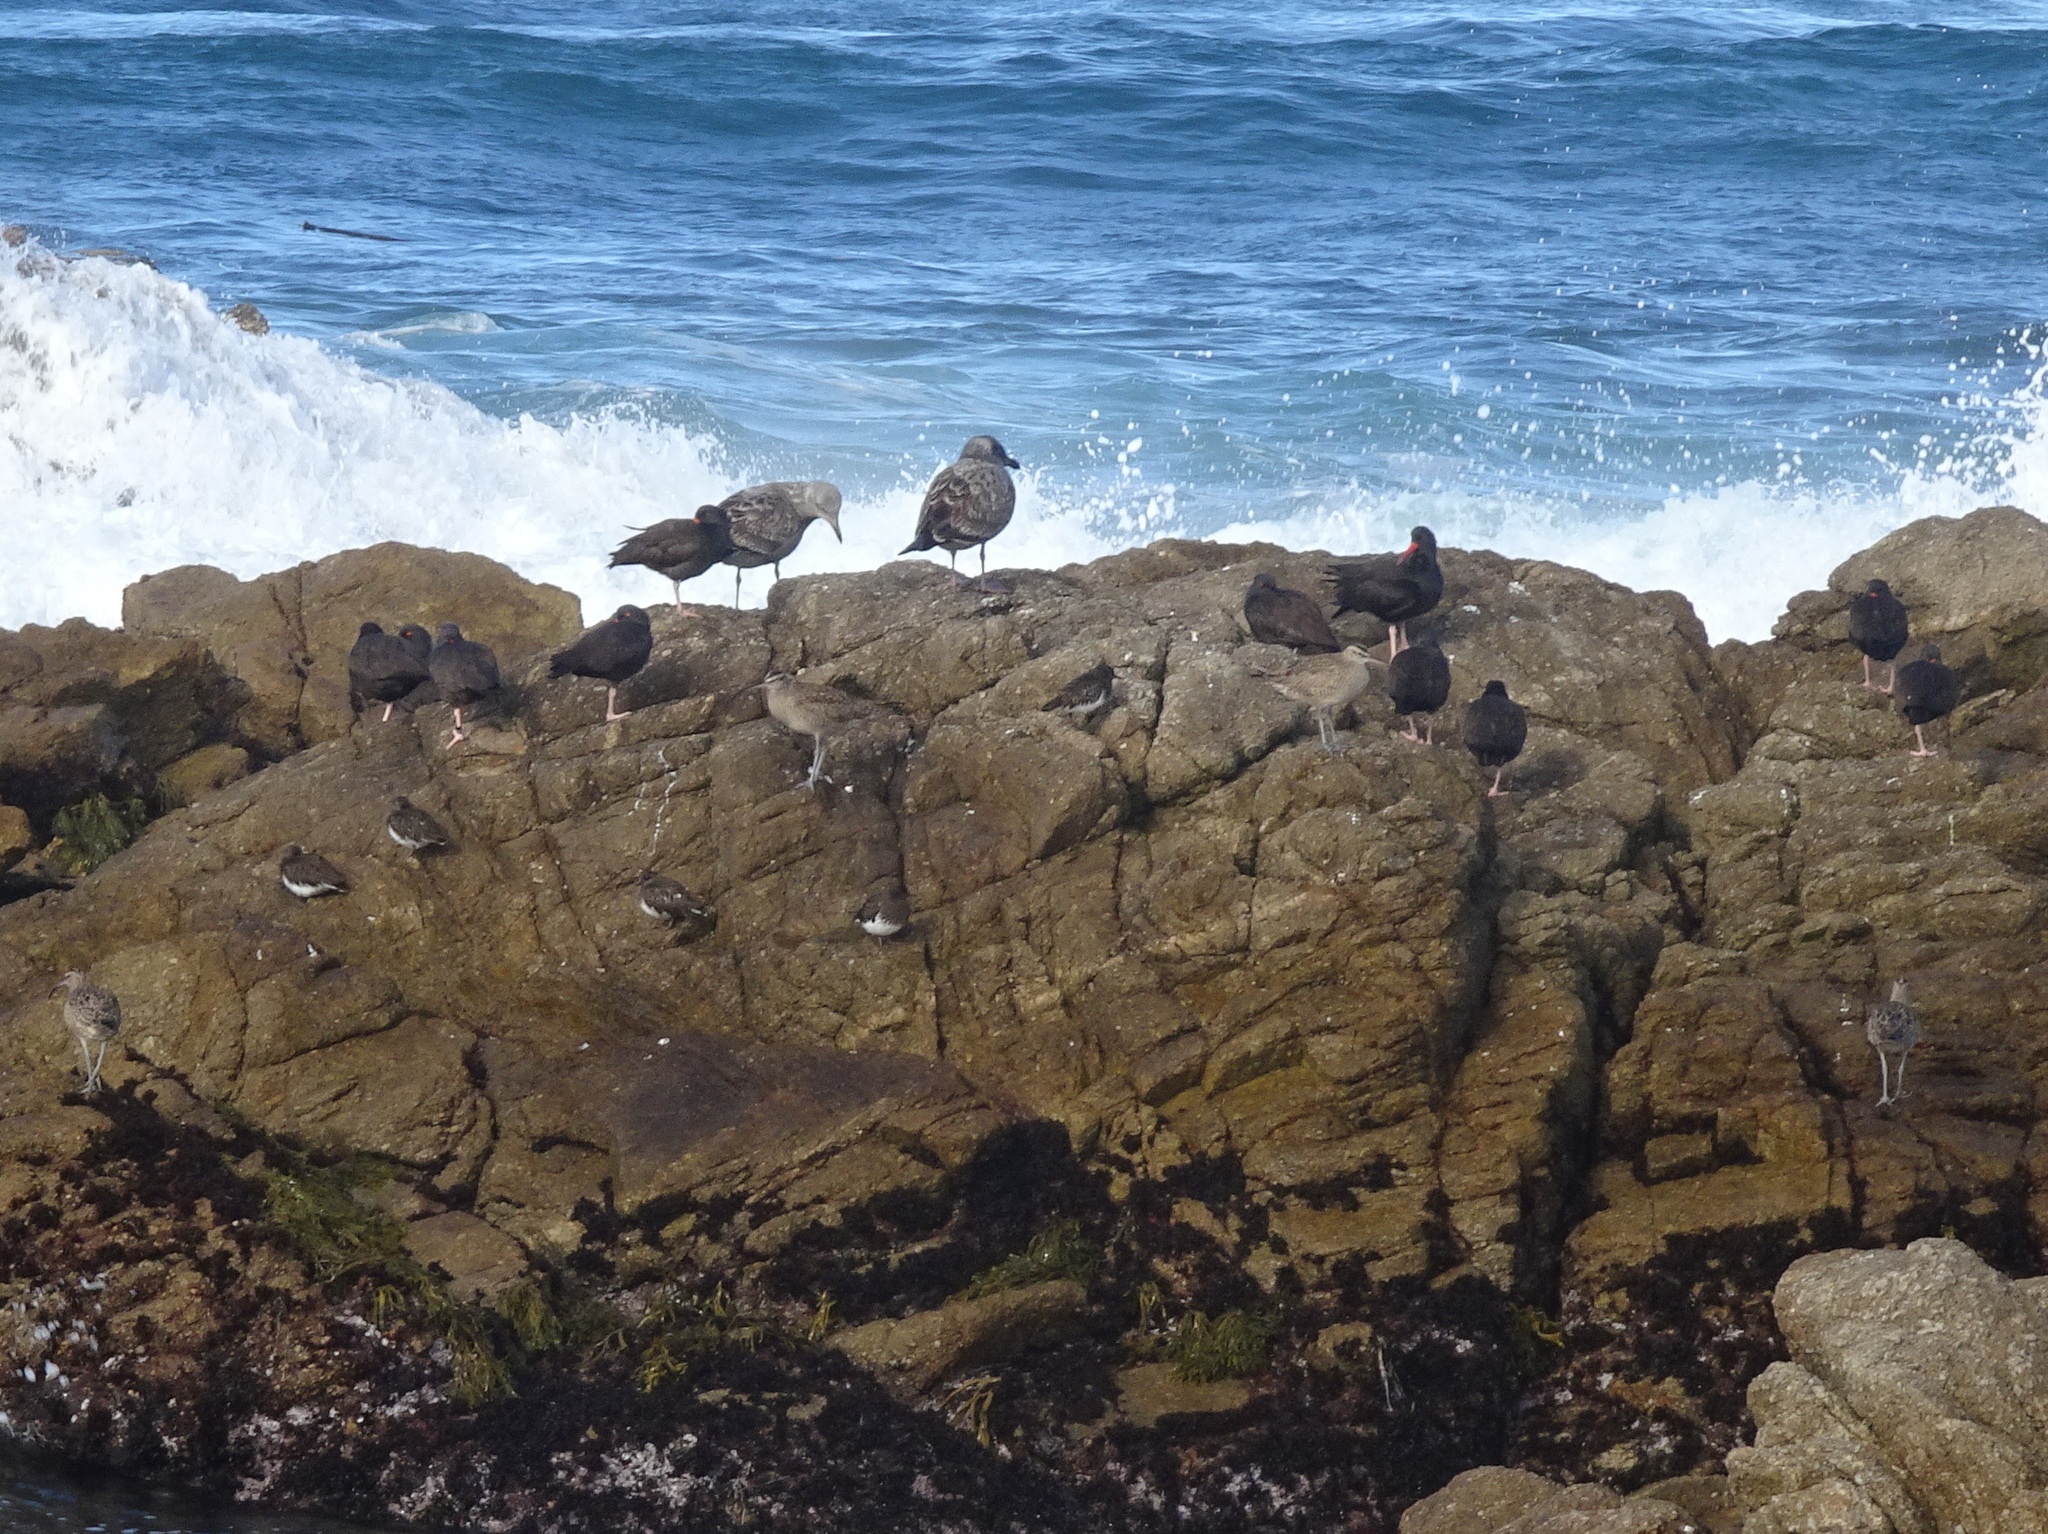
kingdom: Animalia
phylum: Chordata
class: Aves
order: Charadriiformes
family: Scolopacidae
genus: Arenaria
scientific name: Arenaria melanocephala
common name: Black turnstone
